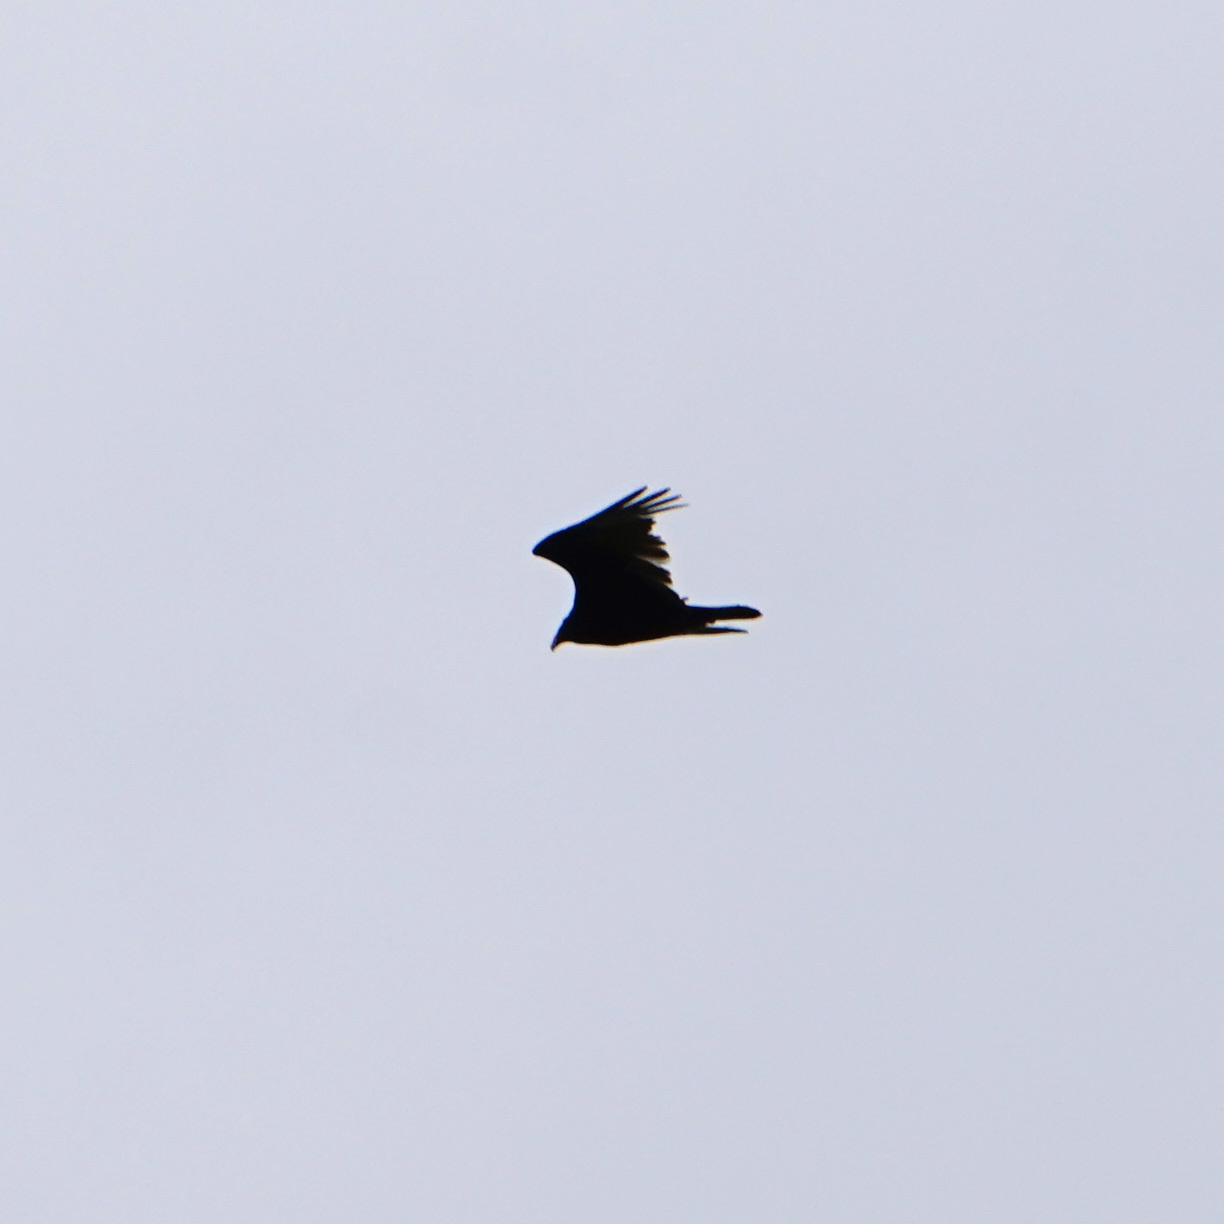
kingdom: Animalia
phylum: Chordata
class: Aves
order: Accipitriformes
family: Cathartidae
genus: Cathartes
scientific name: Cathartes aura
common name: Turkey vulture
